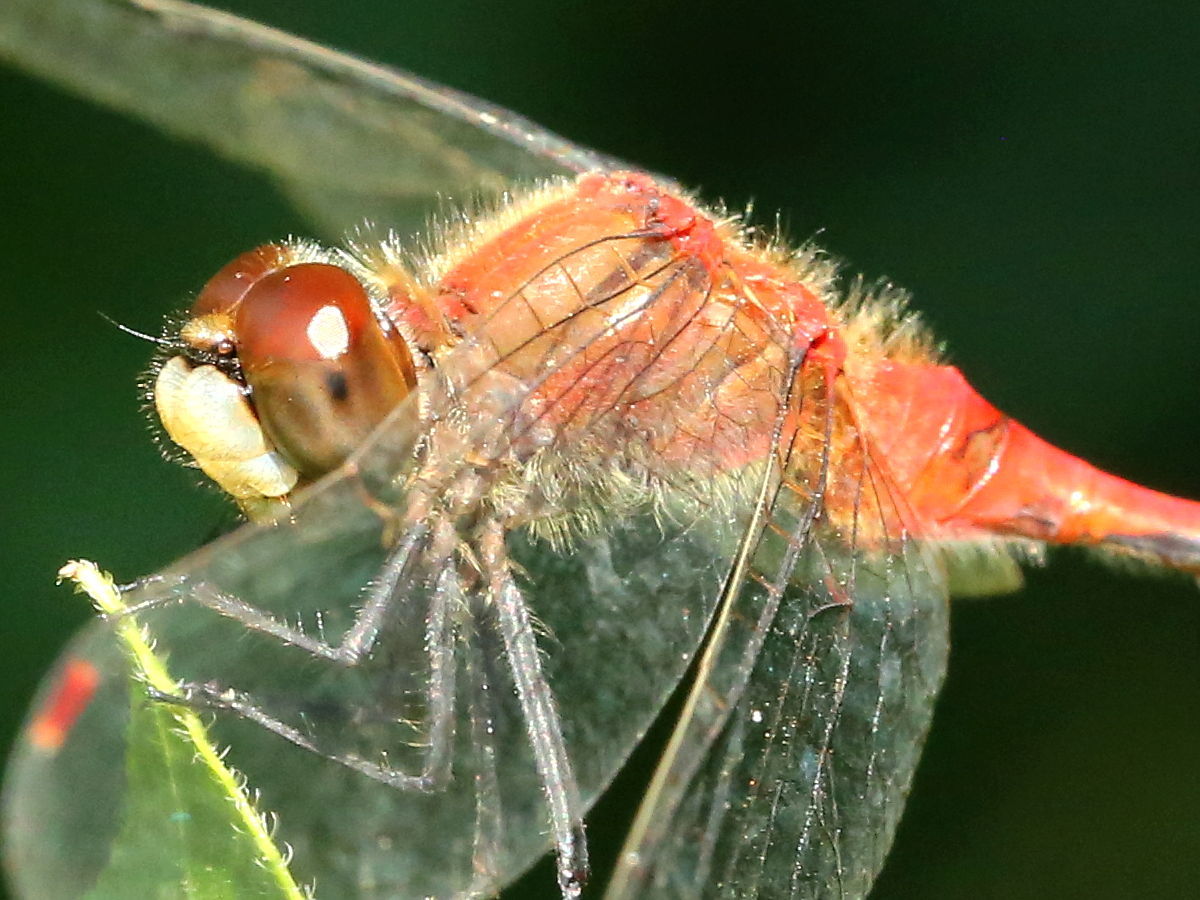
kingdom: Animalia
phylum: Arthropoda
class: Insecta
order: Odonata
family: Libellulidae
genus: Sympetrum
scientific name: Sympetrum obtrusum
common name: White-faced meadowhawk
